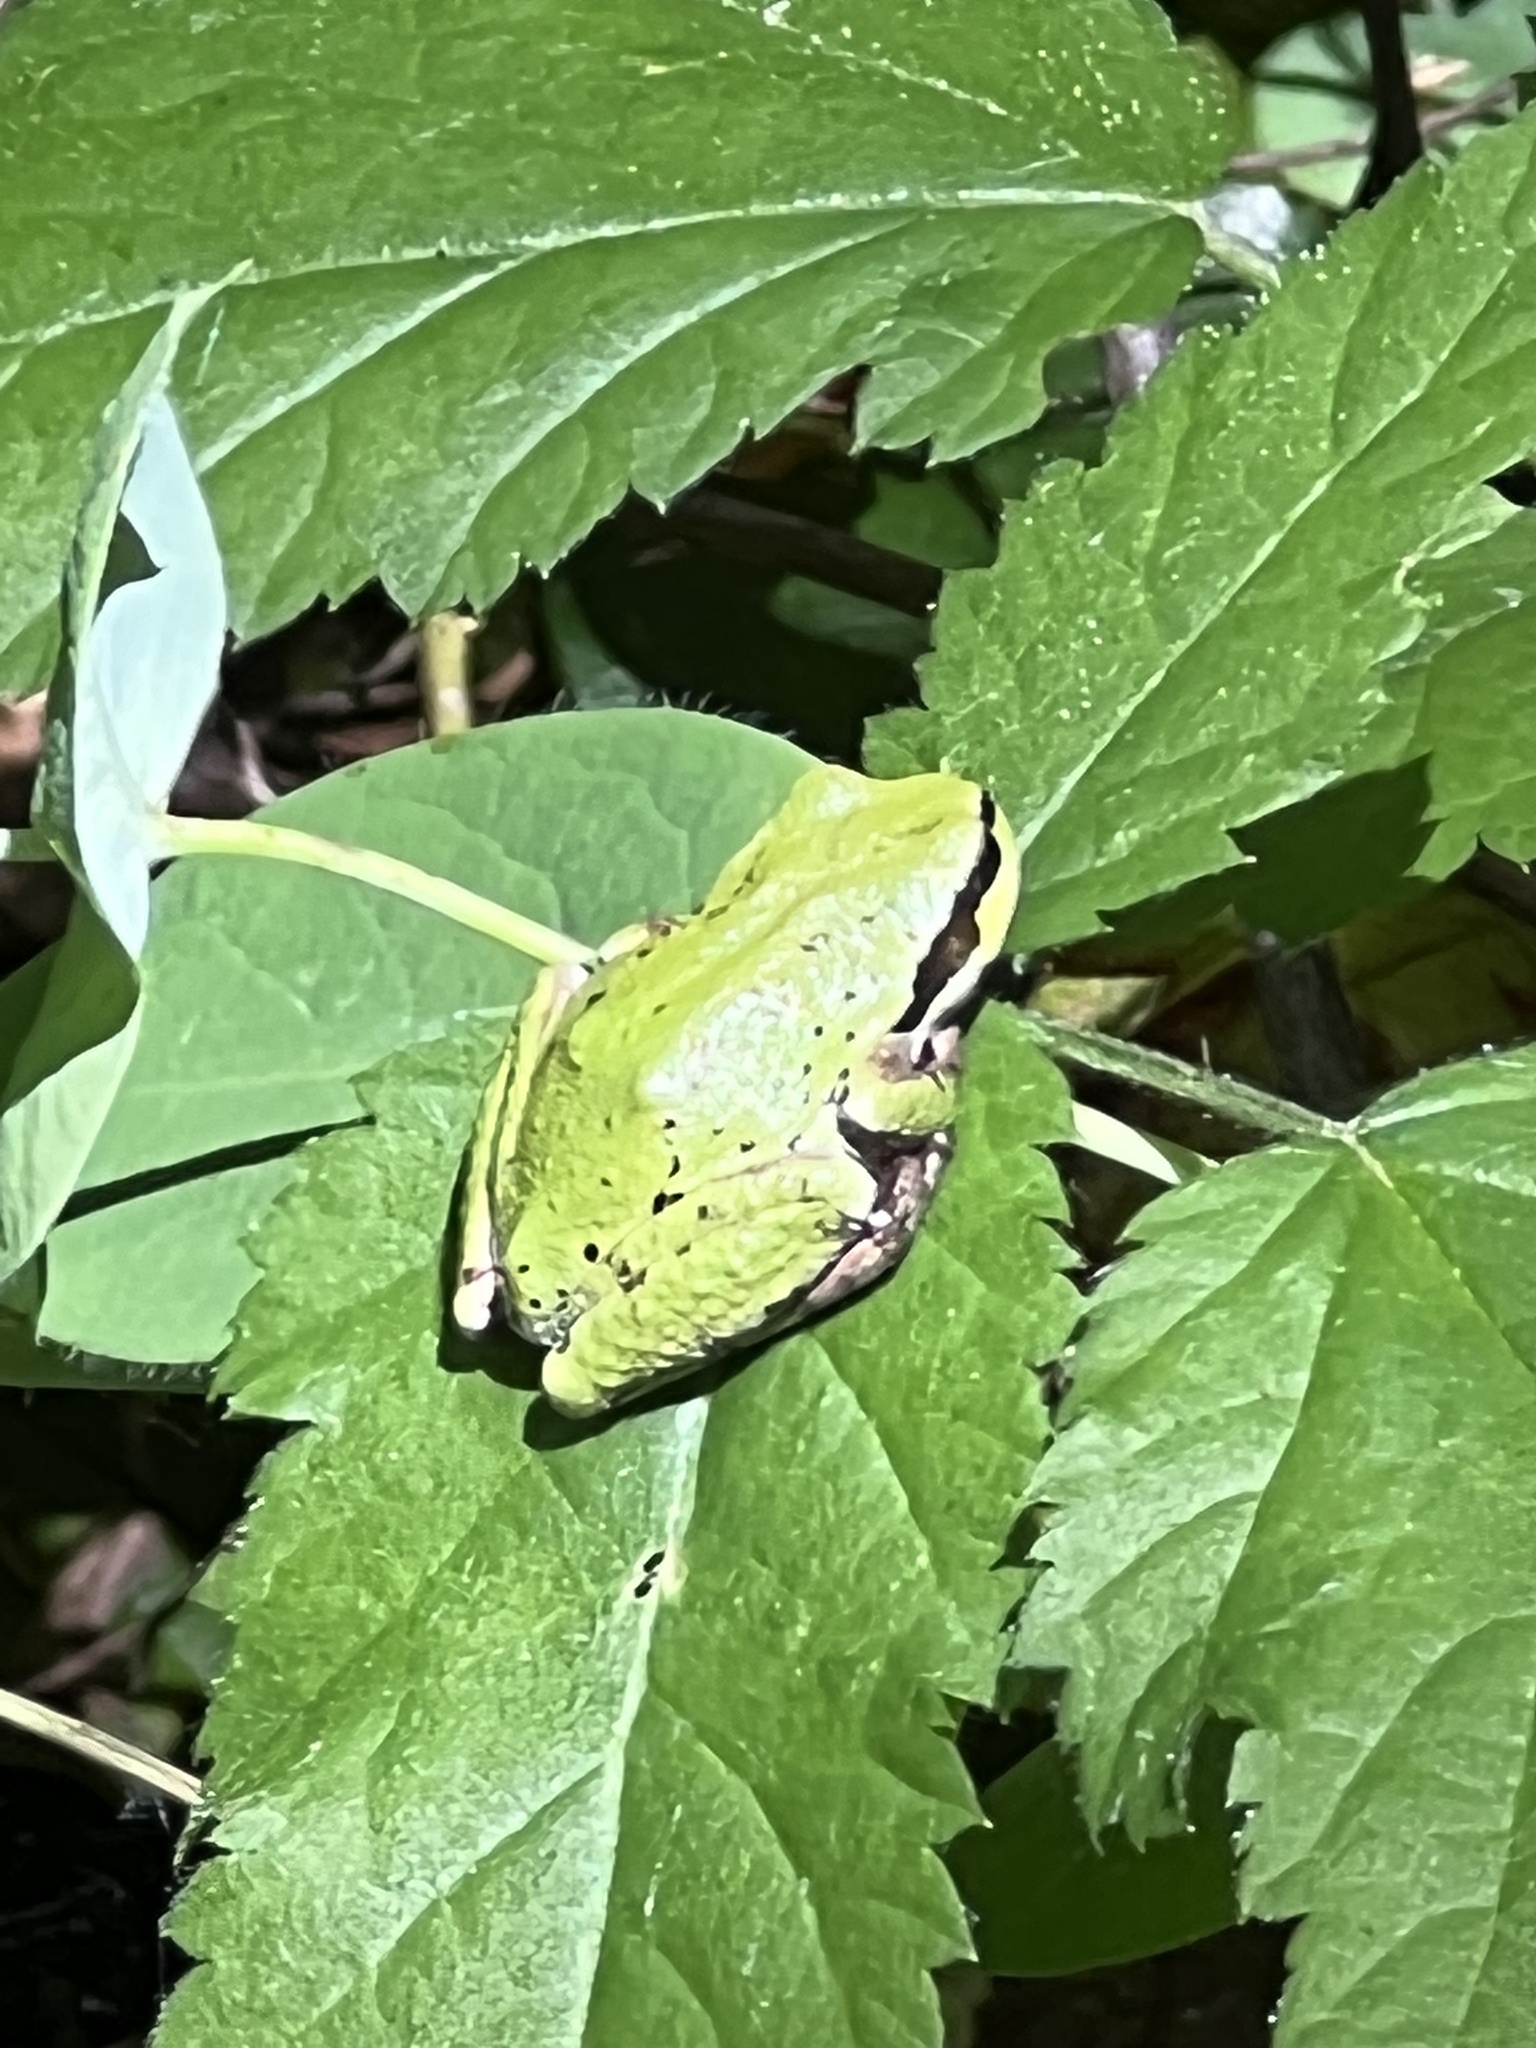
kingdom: Animalia
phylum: Chordata
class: Amphibia
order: Anura
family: Hylidae
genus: Pseudacris
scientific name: Pseudacris regilla
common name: Pacific chorus frog
